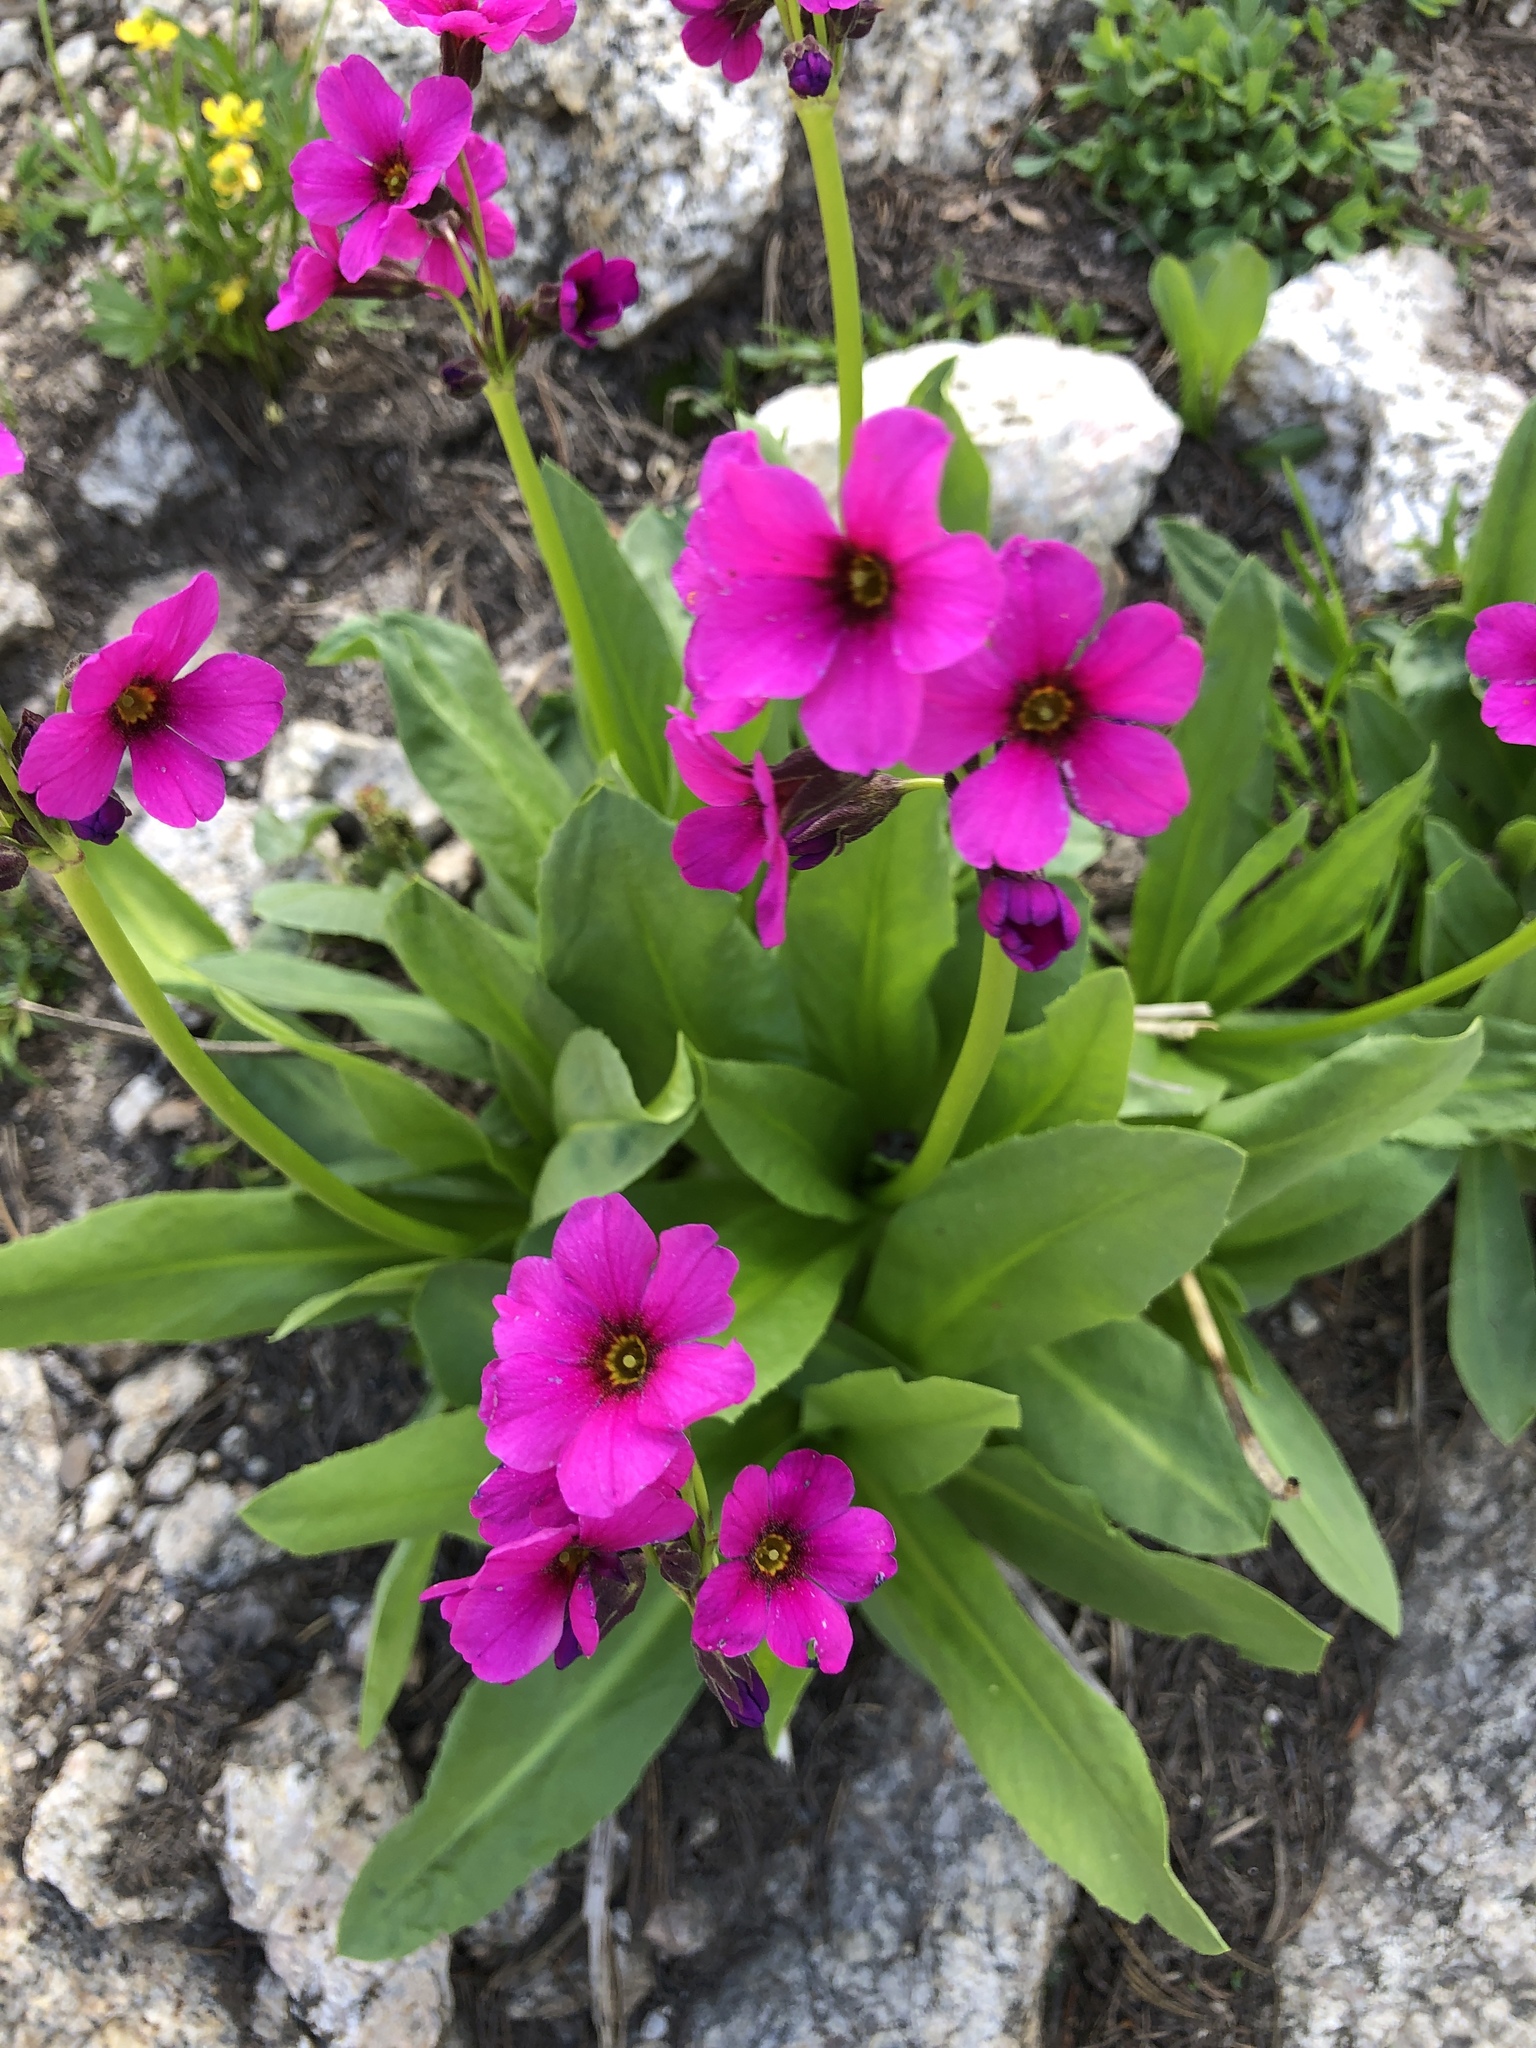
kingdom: Plantae
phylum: Tracheophyta
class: Magnoliopsida
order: Ericales
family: Primulaceae
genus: Primula
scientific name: Primula parryi
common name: Parry's primrose
